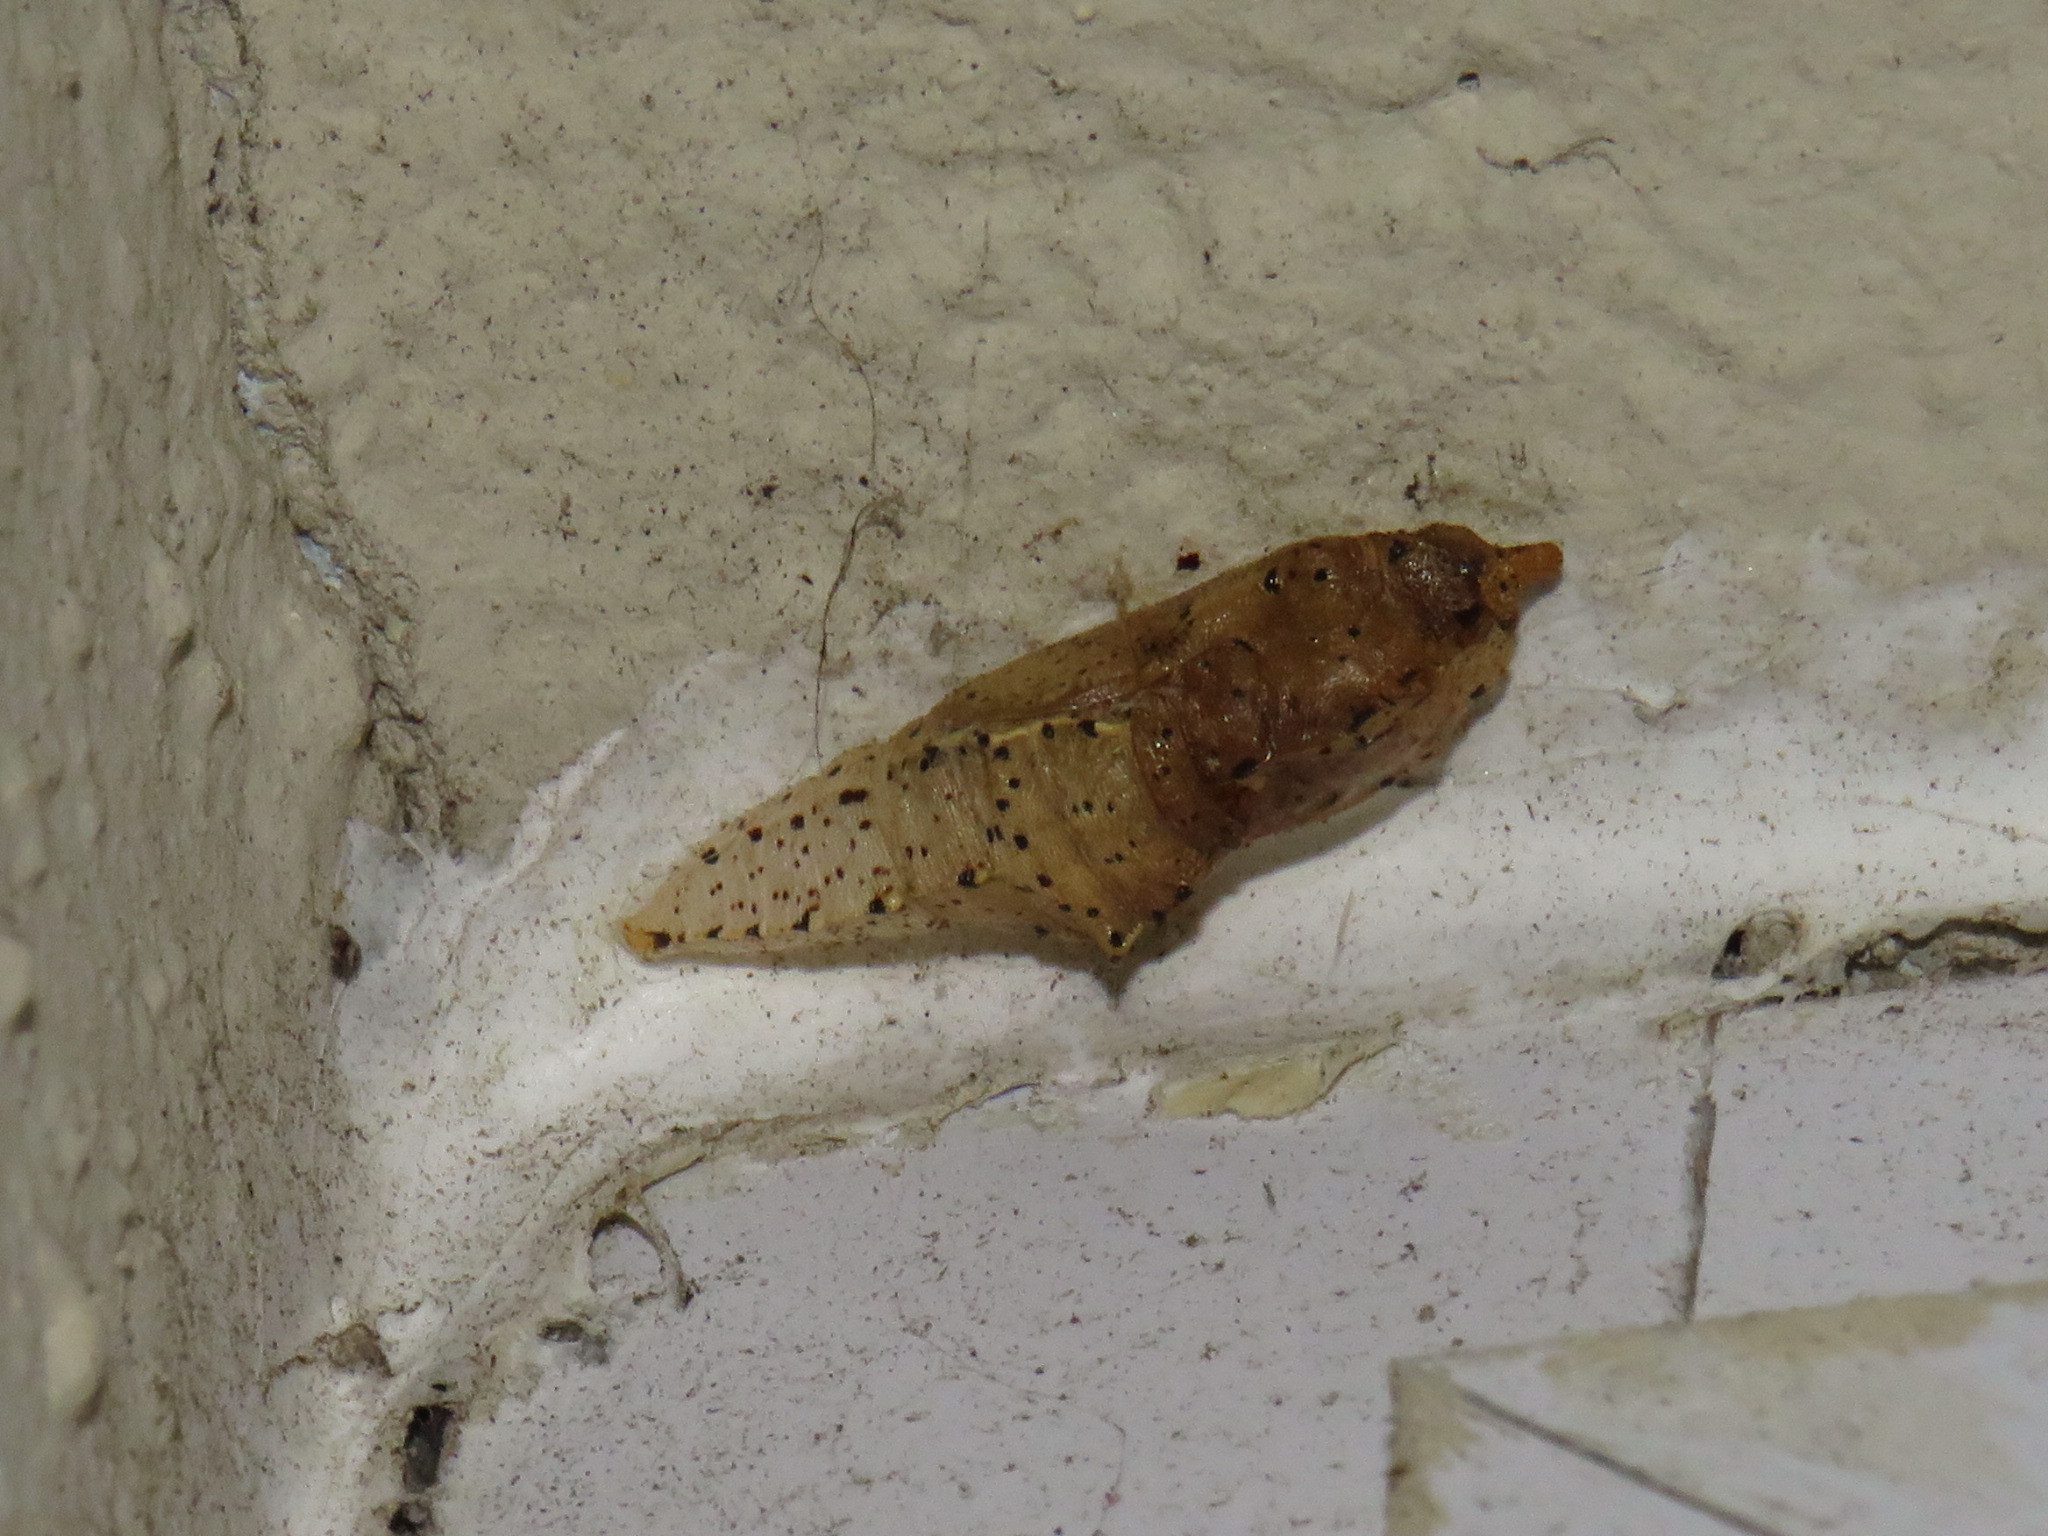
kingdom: Animalia
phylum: Arthropoda
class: Insecta
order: Lepidoptera
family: Pieridae
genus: Pieris
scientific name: Pieris brassicae
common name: Large white
